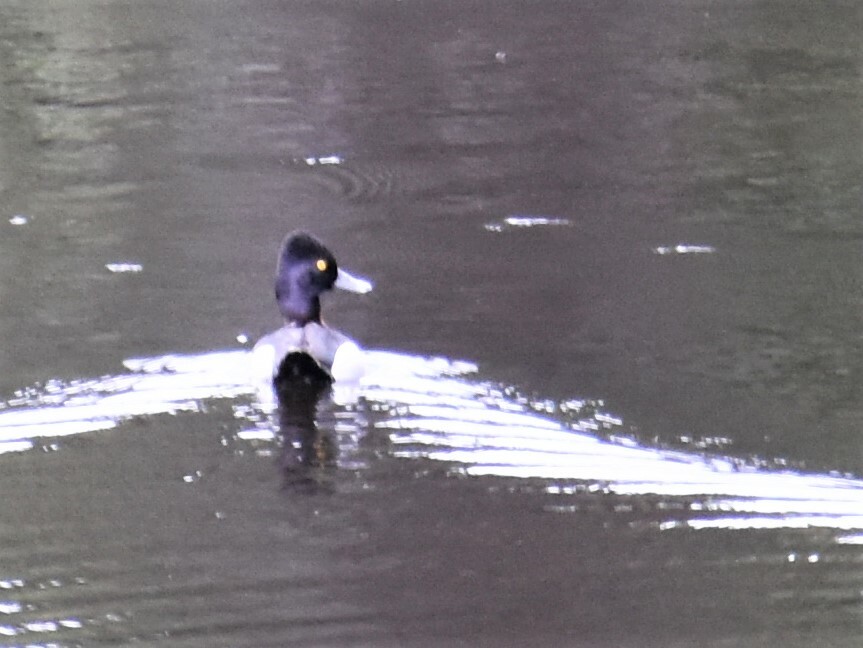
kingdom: Animalia
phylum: Chordata
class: Aves
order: Anseriformes
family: Anatidae
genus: Aythya
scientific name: Aythya collaris
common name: Ring-necked duck
